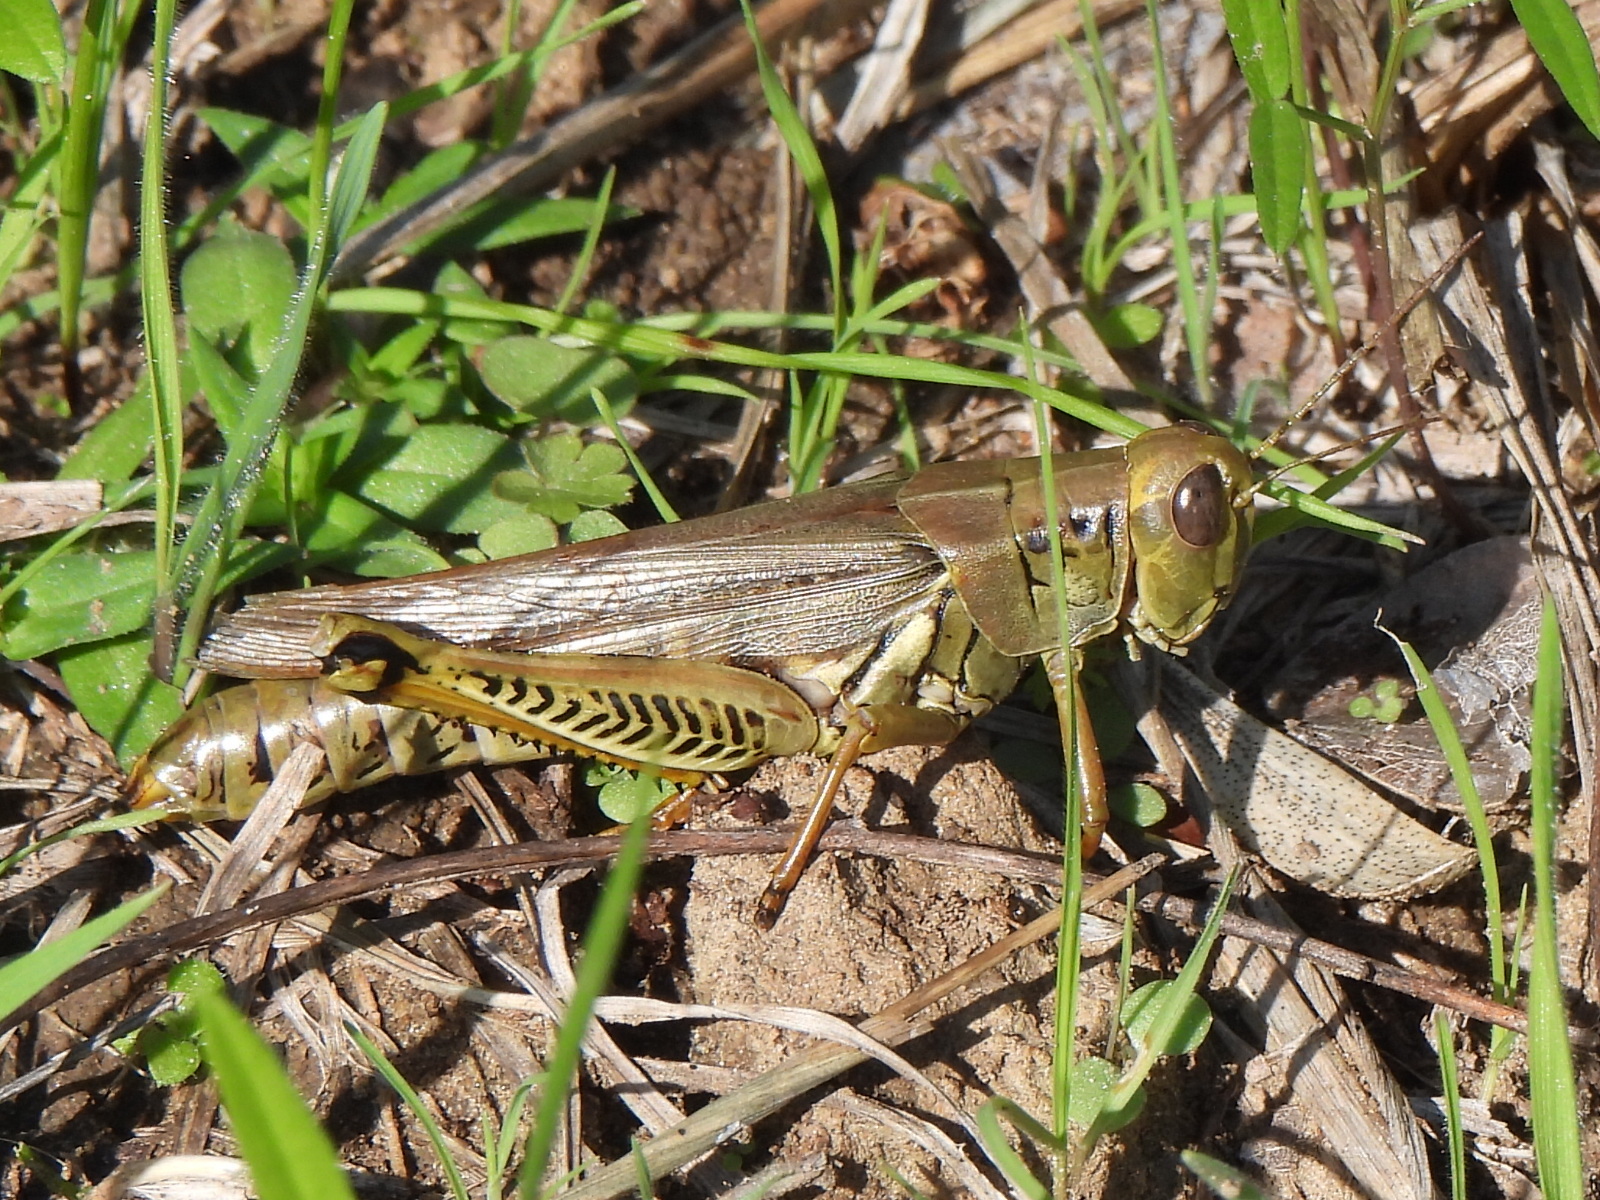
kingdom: Animalia
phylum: Arthropoda
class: Insecta
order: Orthoptera
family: Acrididae
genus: Melanoplus
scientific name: Melanoplus differentialis
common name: Differential grasshopper
